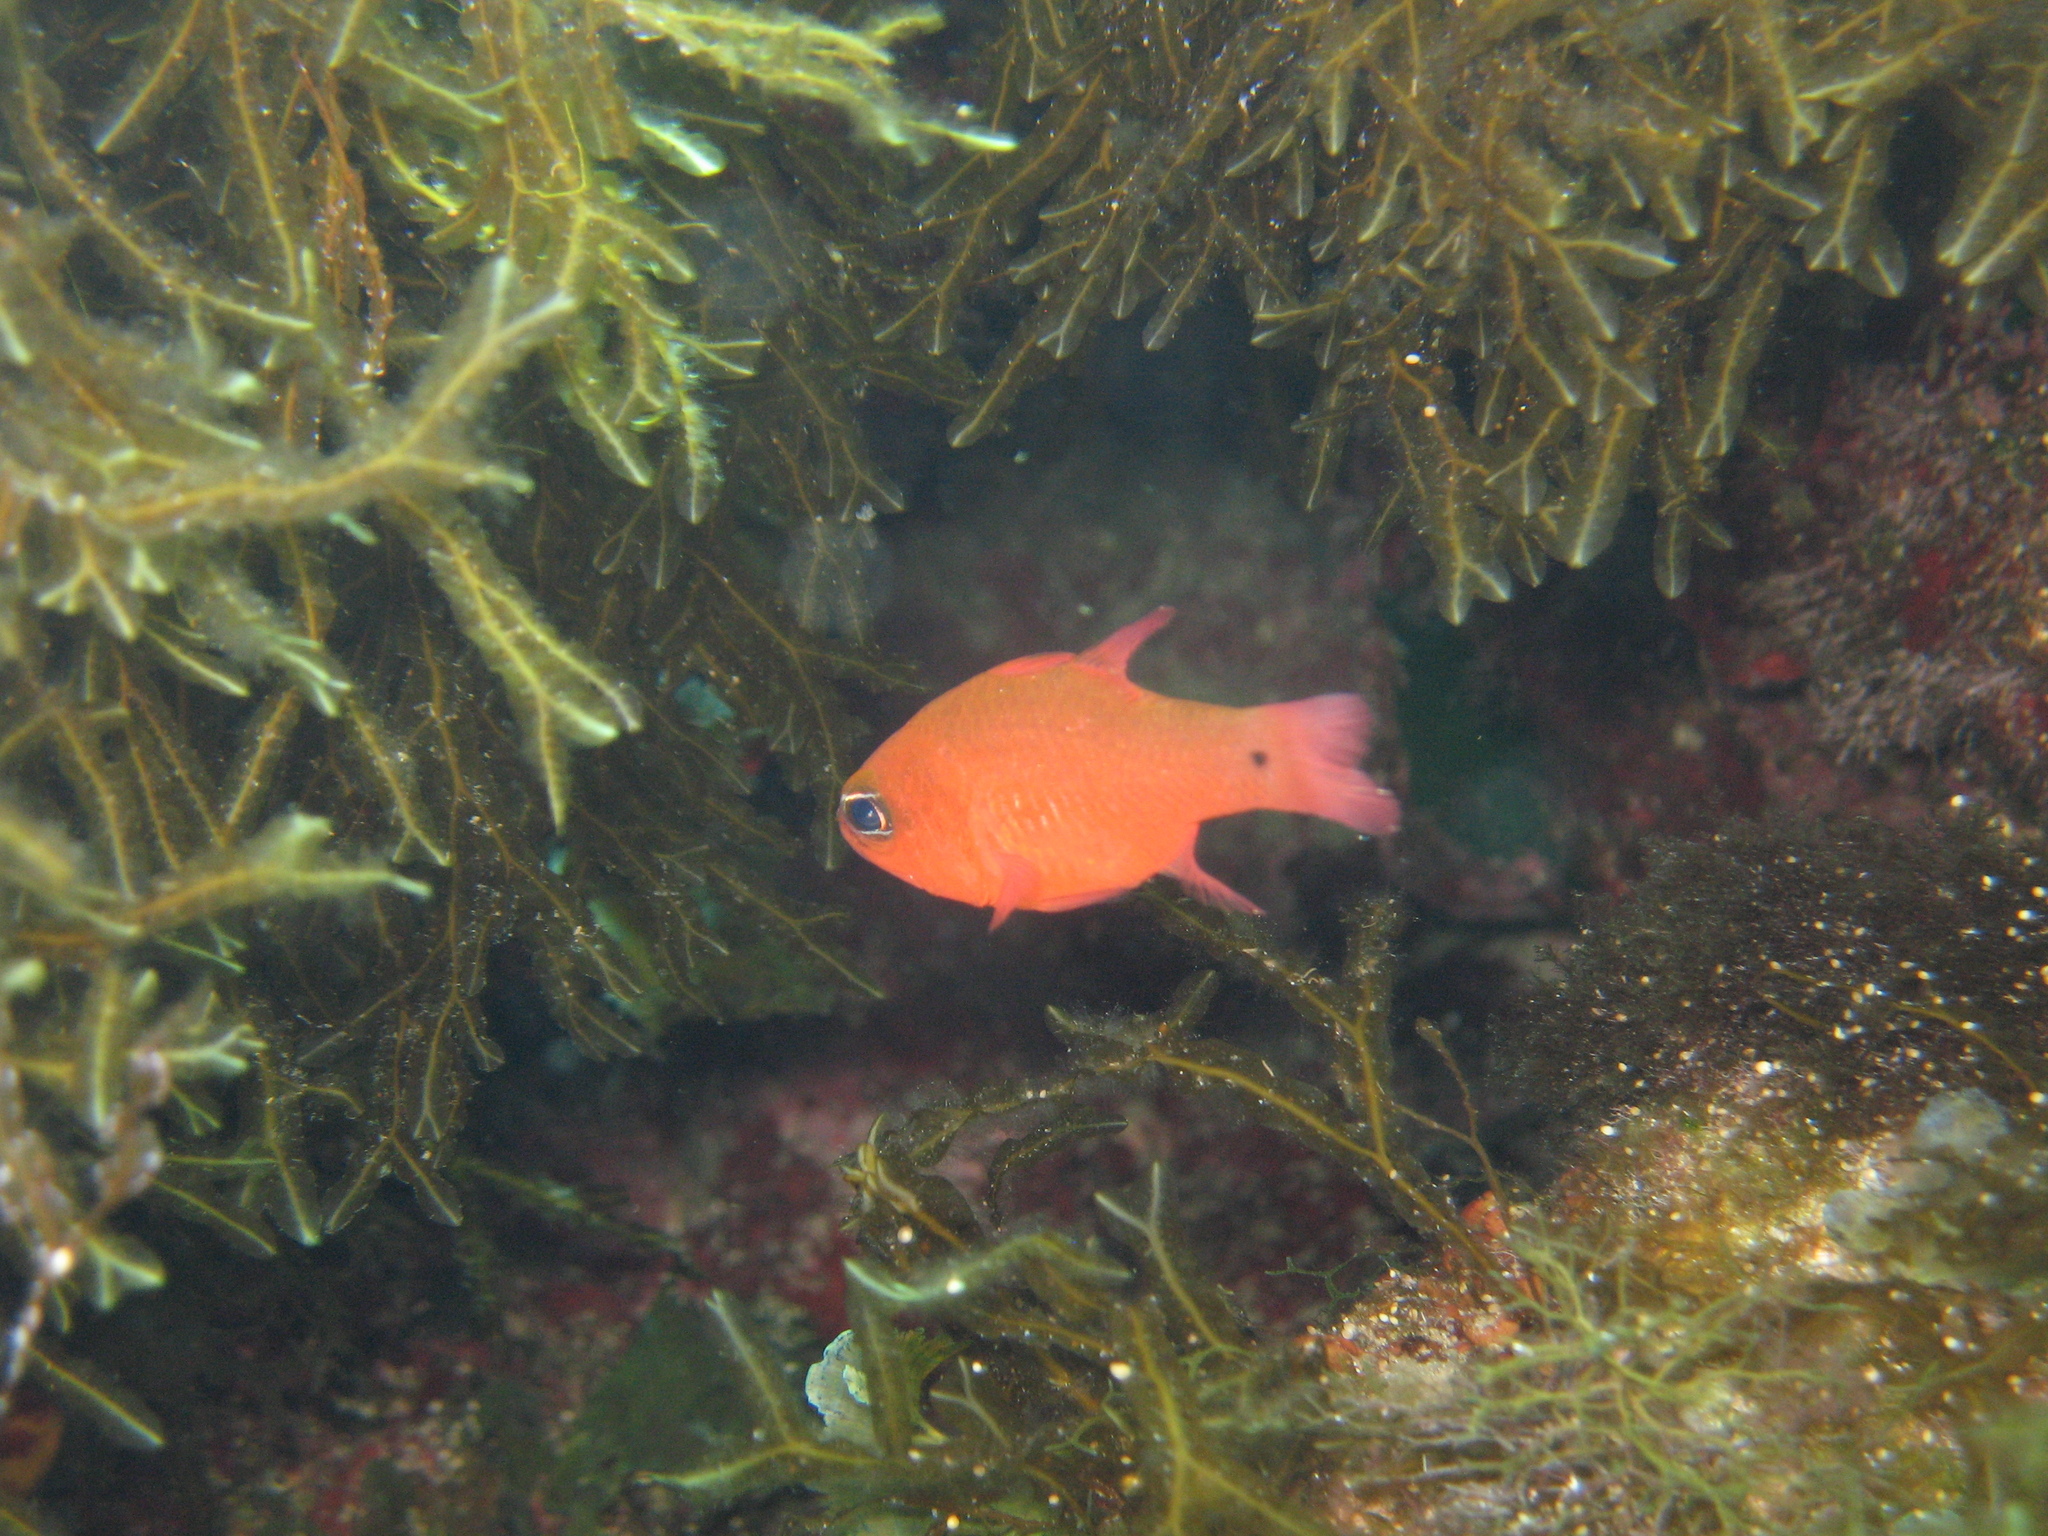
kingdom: Animalia
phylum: Chordata
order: Perciformes
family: Apogonidae
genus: Apogon
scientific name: Apogon imberbis
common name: Cardinal fish
